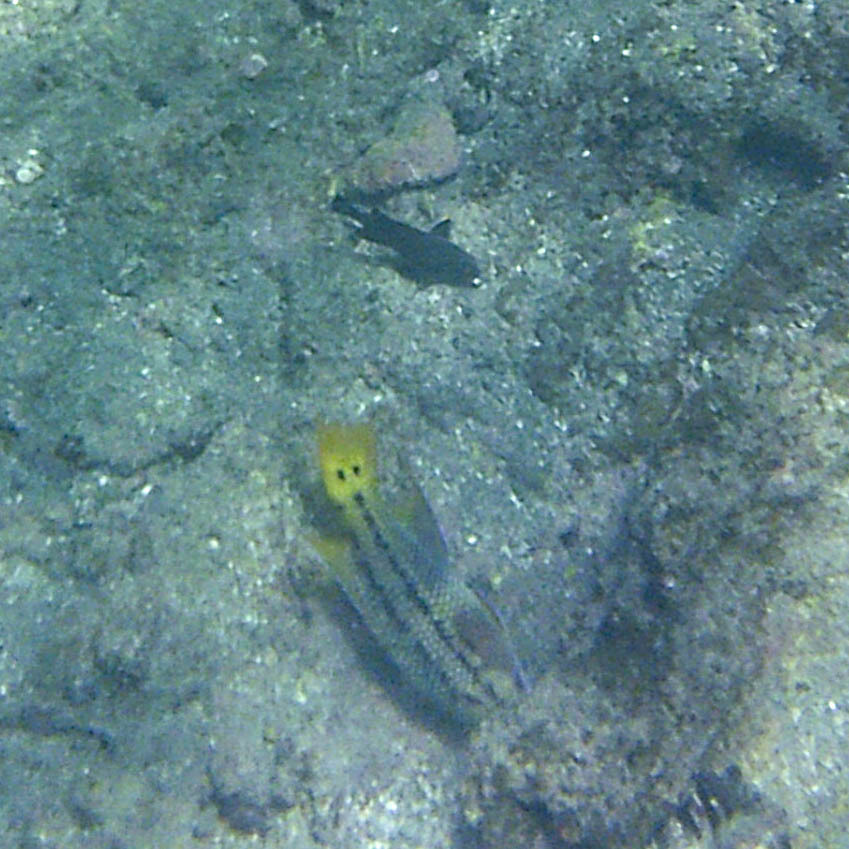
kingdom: Animalia
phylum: Chordata
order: Perciformes
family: Labridae
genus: Bodianus
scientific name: Bodianus diplotaenia
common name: Mexican hogfish
